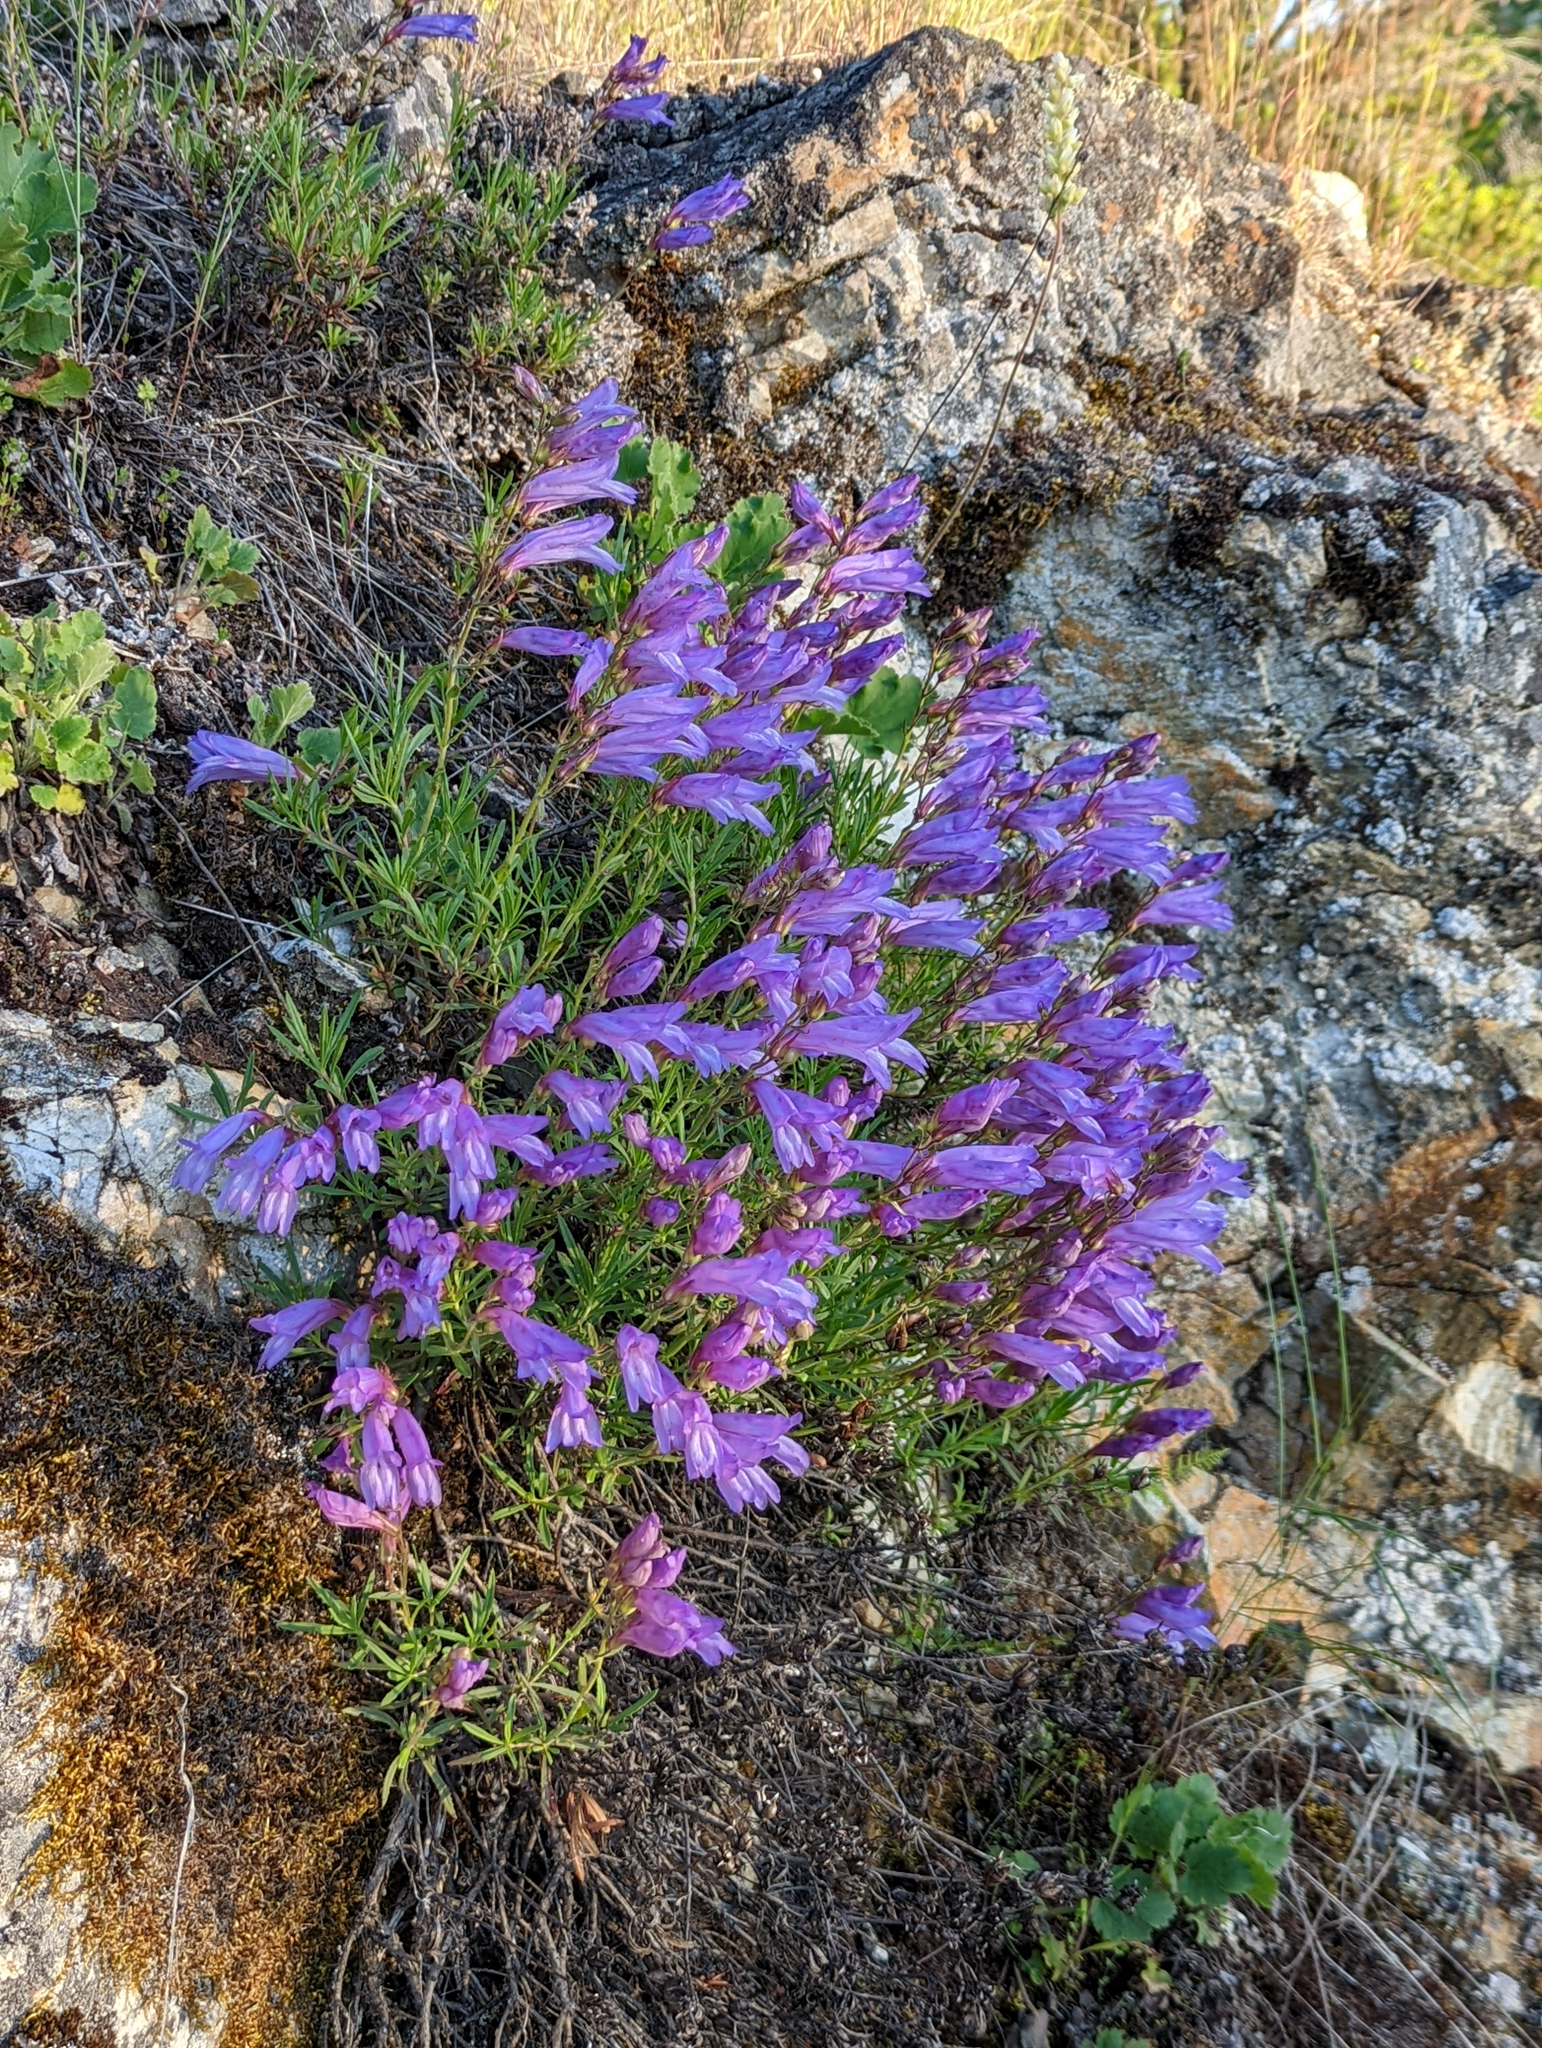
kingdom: Plantae
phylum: Tracheophyta
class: Magnoliopsida
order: Lamiales
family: Plantaginaceae
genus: Penstemon
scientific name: Penstemon fruticosus
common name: Bush penstemon
